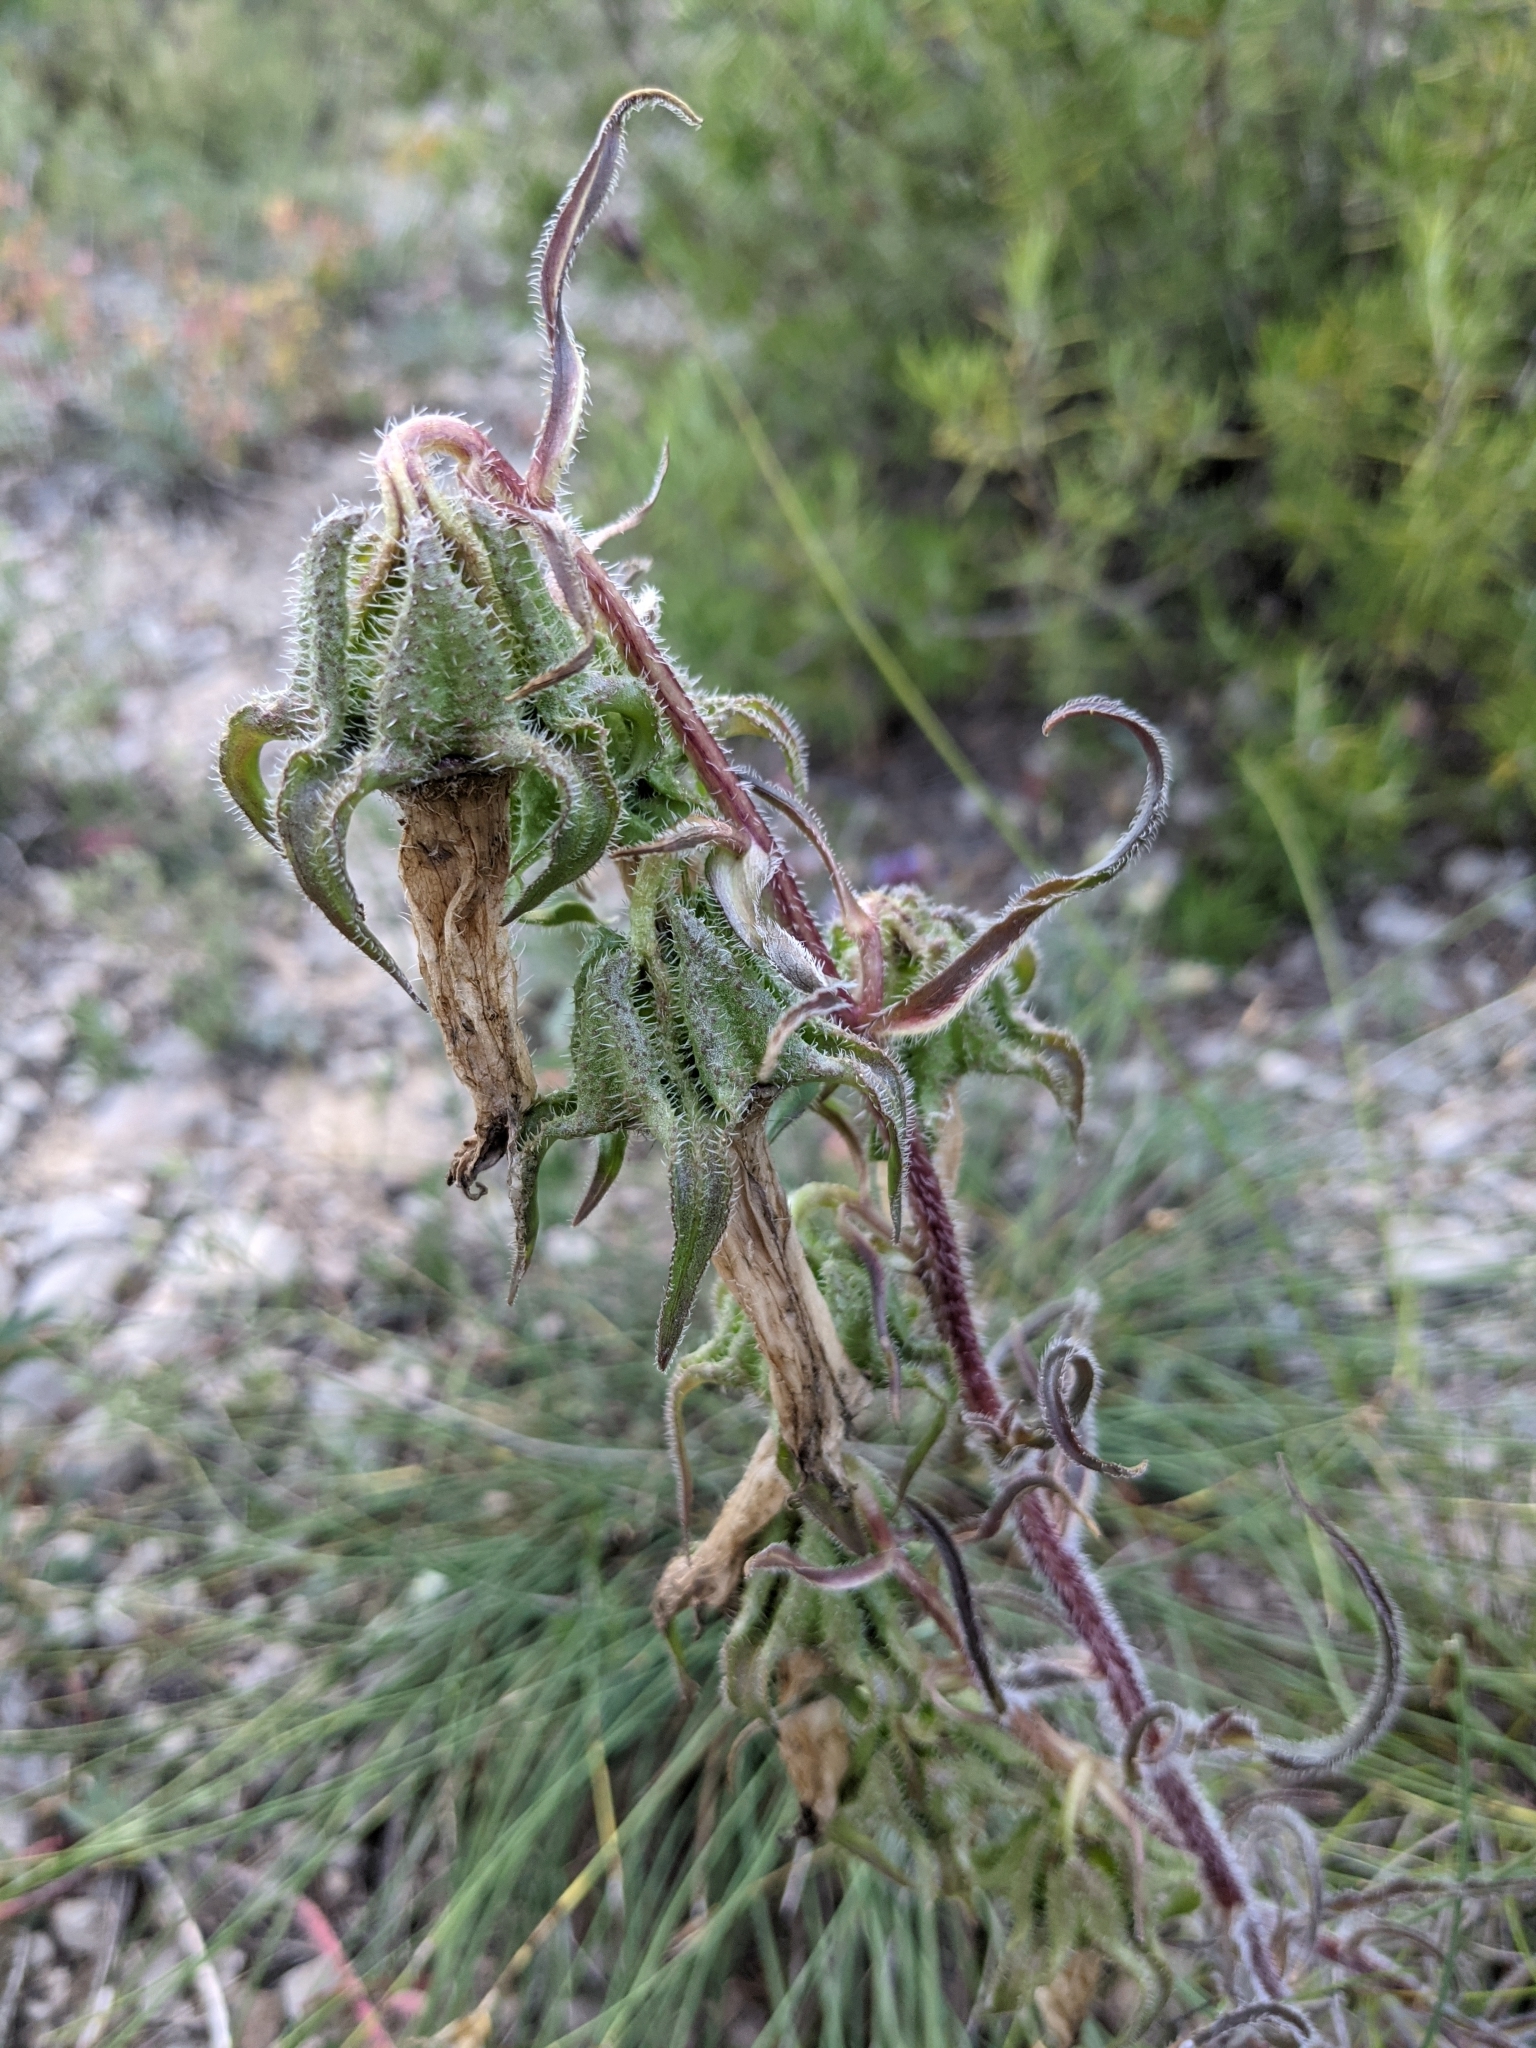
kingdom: Plantae
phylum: Tracheophyta
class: Magnoliopsida
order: Asterales
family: Campanulaceae
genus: Campanula
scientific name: Campanula speciosa
